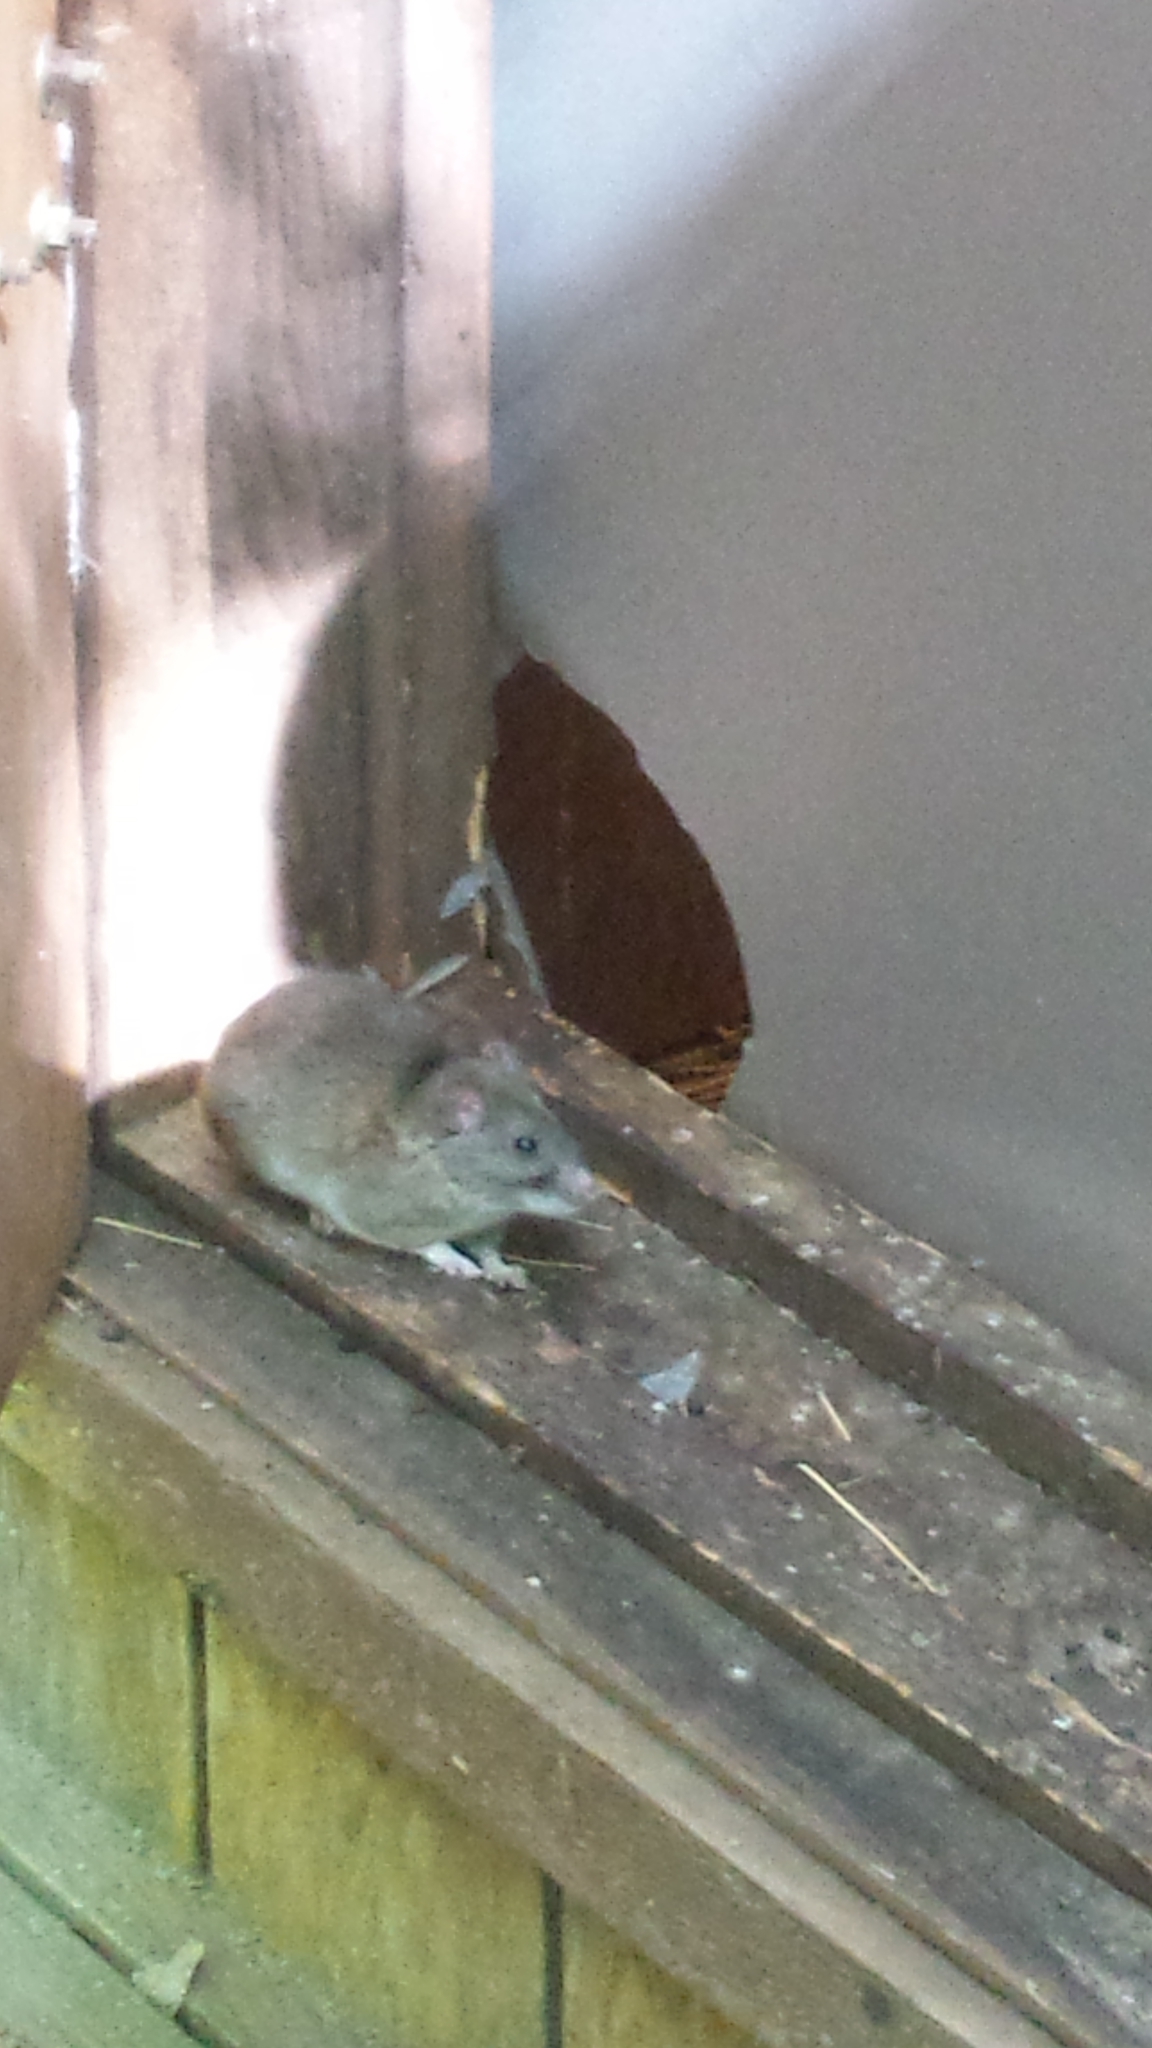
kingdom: Animalia
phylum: Chordata
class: Mammalia
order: Rodentia
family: Cricetidae
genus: Neotoma
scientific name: Neotoma floridana
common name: Eastern woodrat
